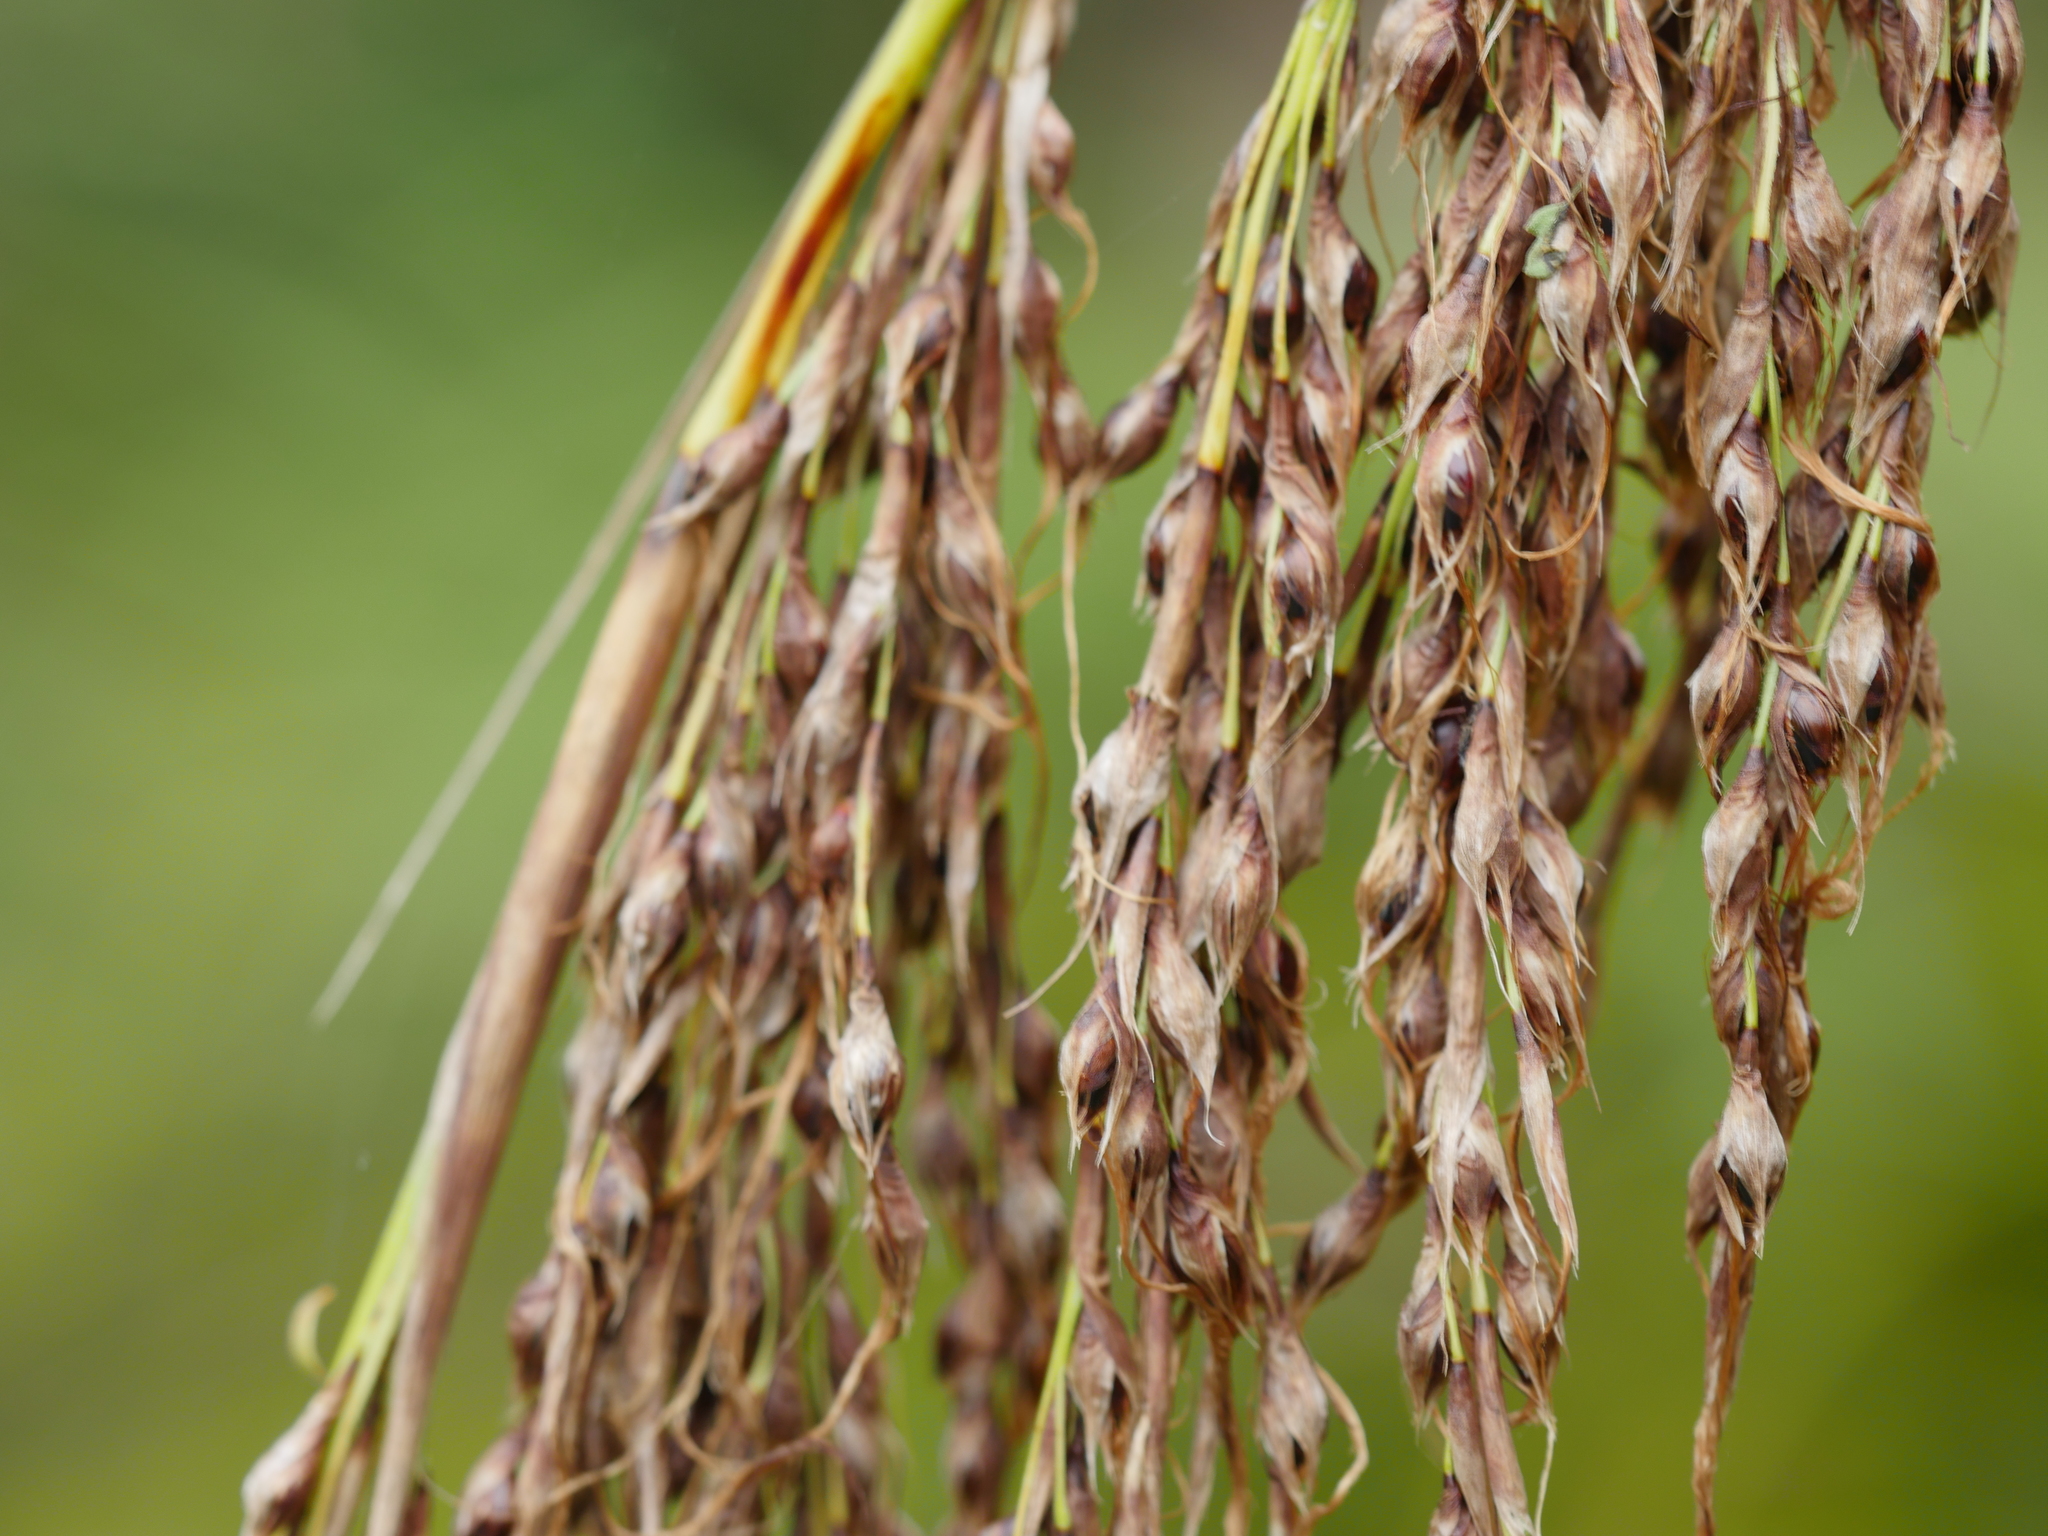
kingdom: Plantae
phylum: Tracheophyta
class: Liliopsida
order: Poales
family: Cyperaceae
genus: Gahnia
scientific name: Gahnia xanthocarpa
